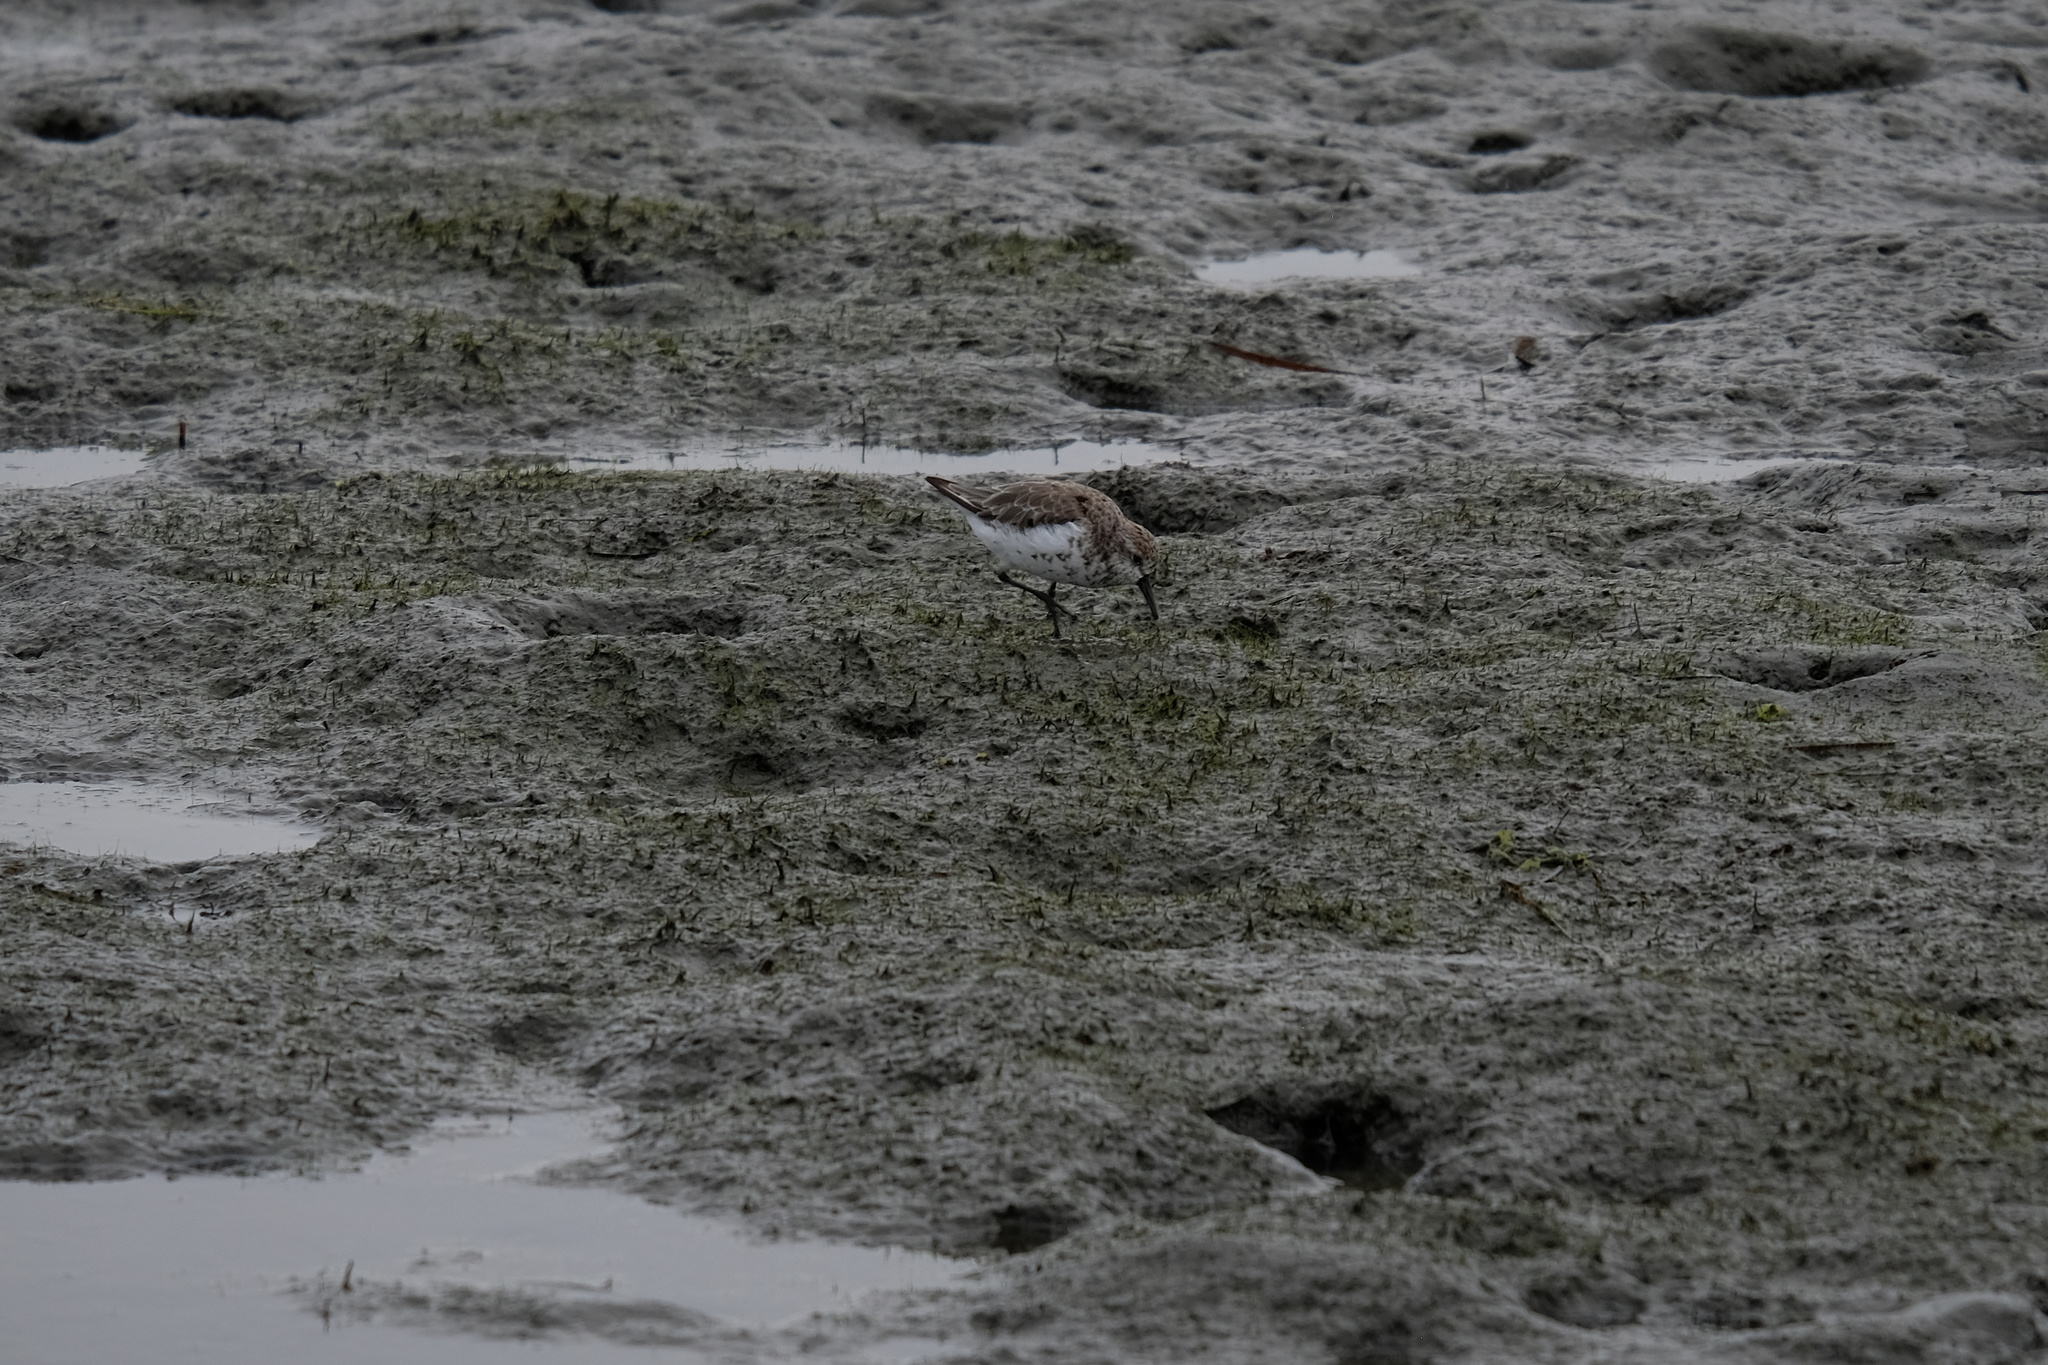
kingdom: Animalia
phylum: Chordata
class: Aves
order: Charadriiformes
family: Scolopacidae
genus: Calidris
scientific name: Calidris mauri
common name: Western sandpiper
